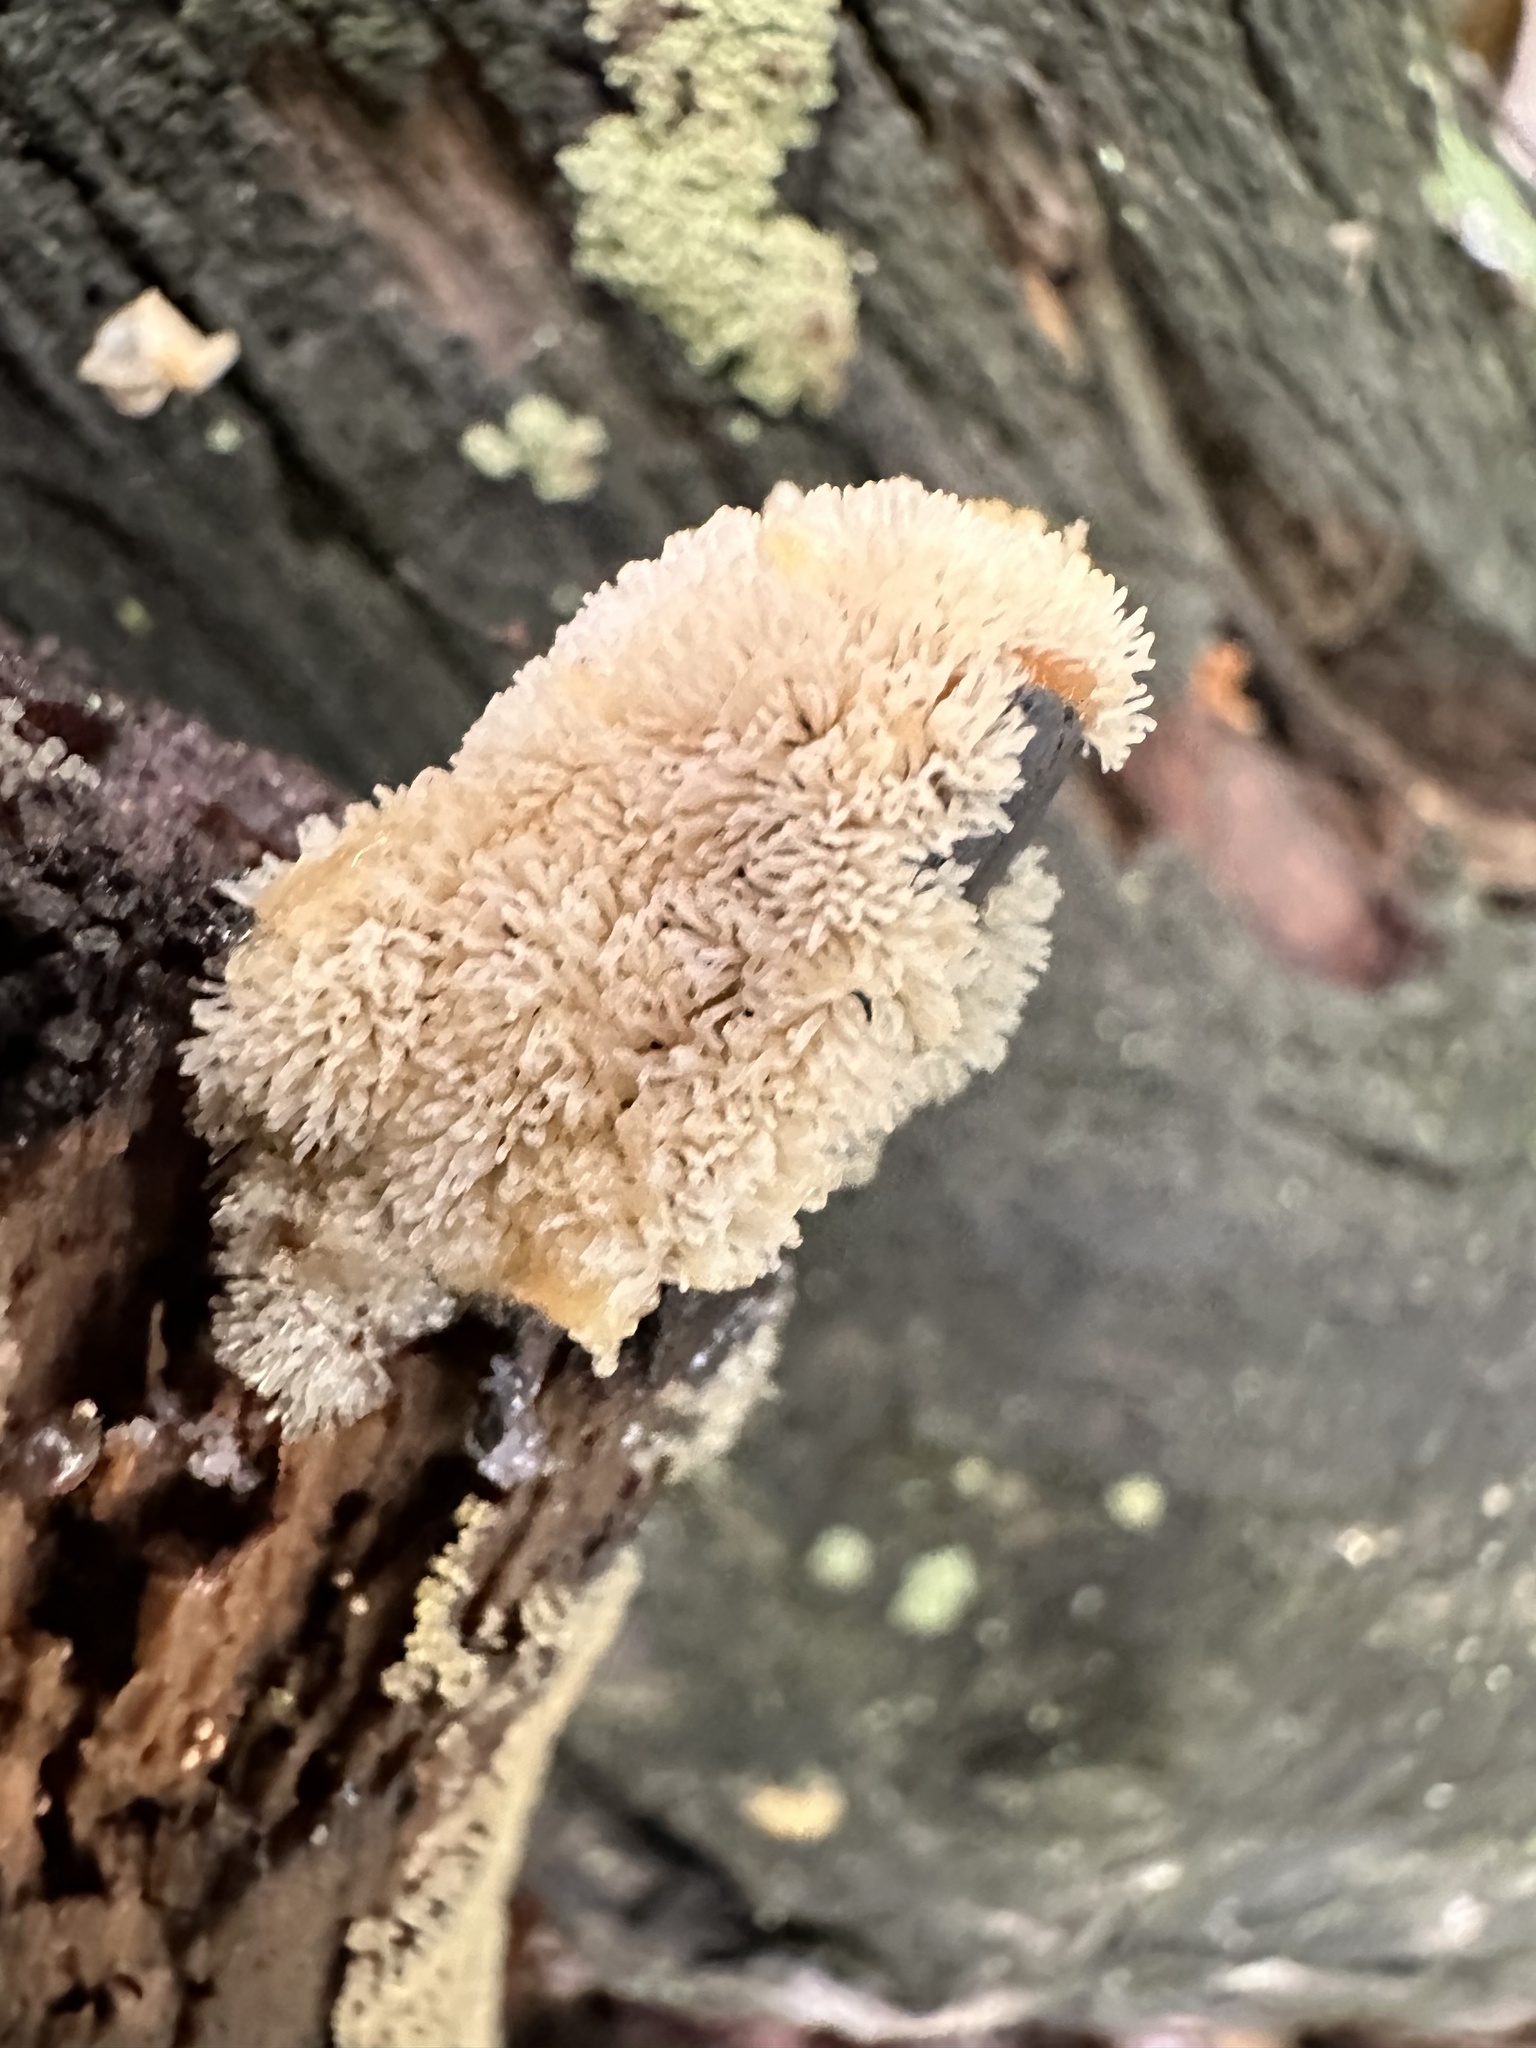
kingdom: Protozoa
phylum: Mycetozoa
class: Protosteliomycetes
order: Ceratiomyxales
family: Ceratiomyxaceae
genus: Ceratiomyxa
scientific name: Ceratiomyxa fruticulosa
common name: Honeycomb coral slime mold
